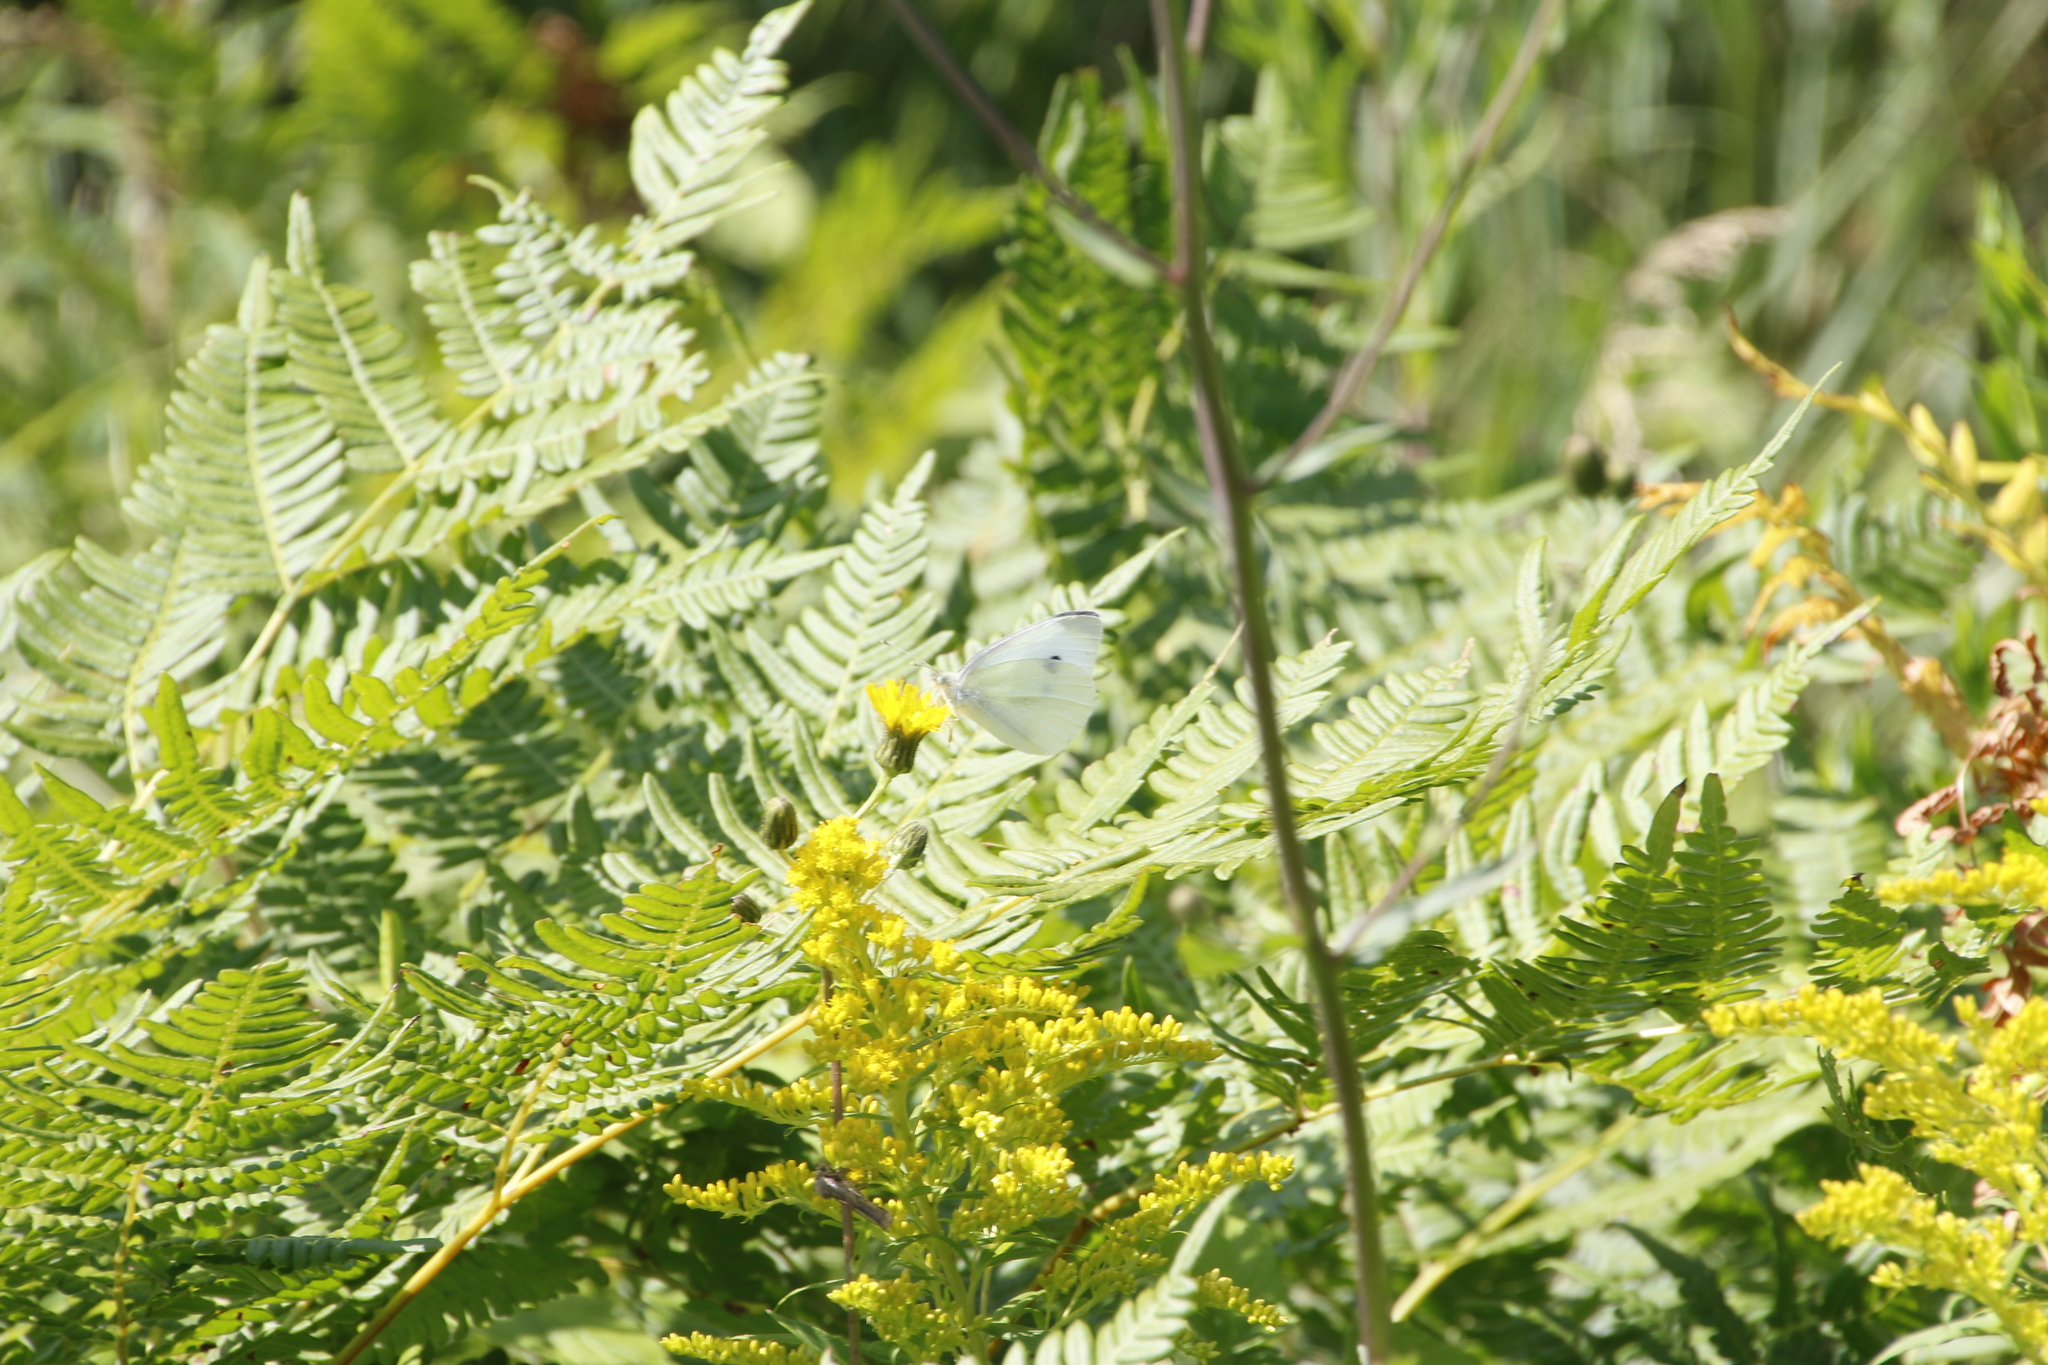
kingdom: Animalia
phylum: Arthropoda
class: Insecta
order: Lepidoptera
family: Pieridae
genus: Pieris
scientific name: Pieris rapae
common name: Small white
